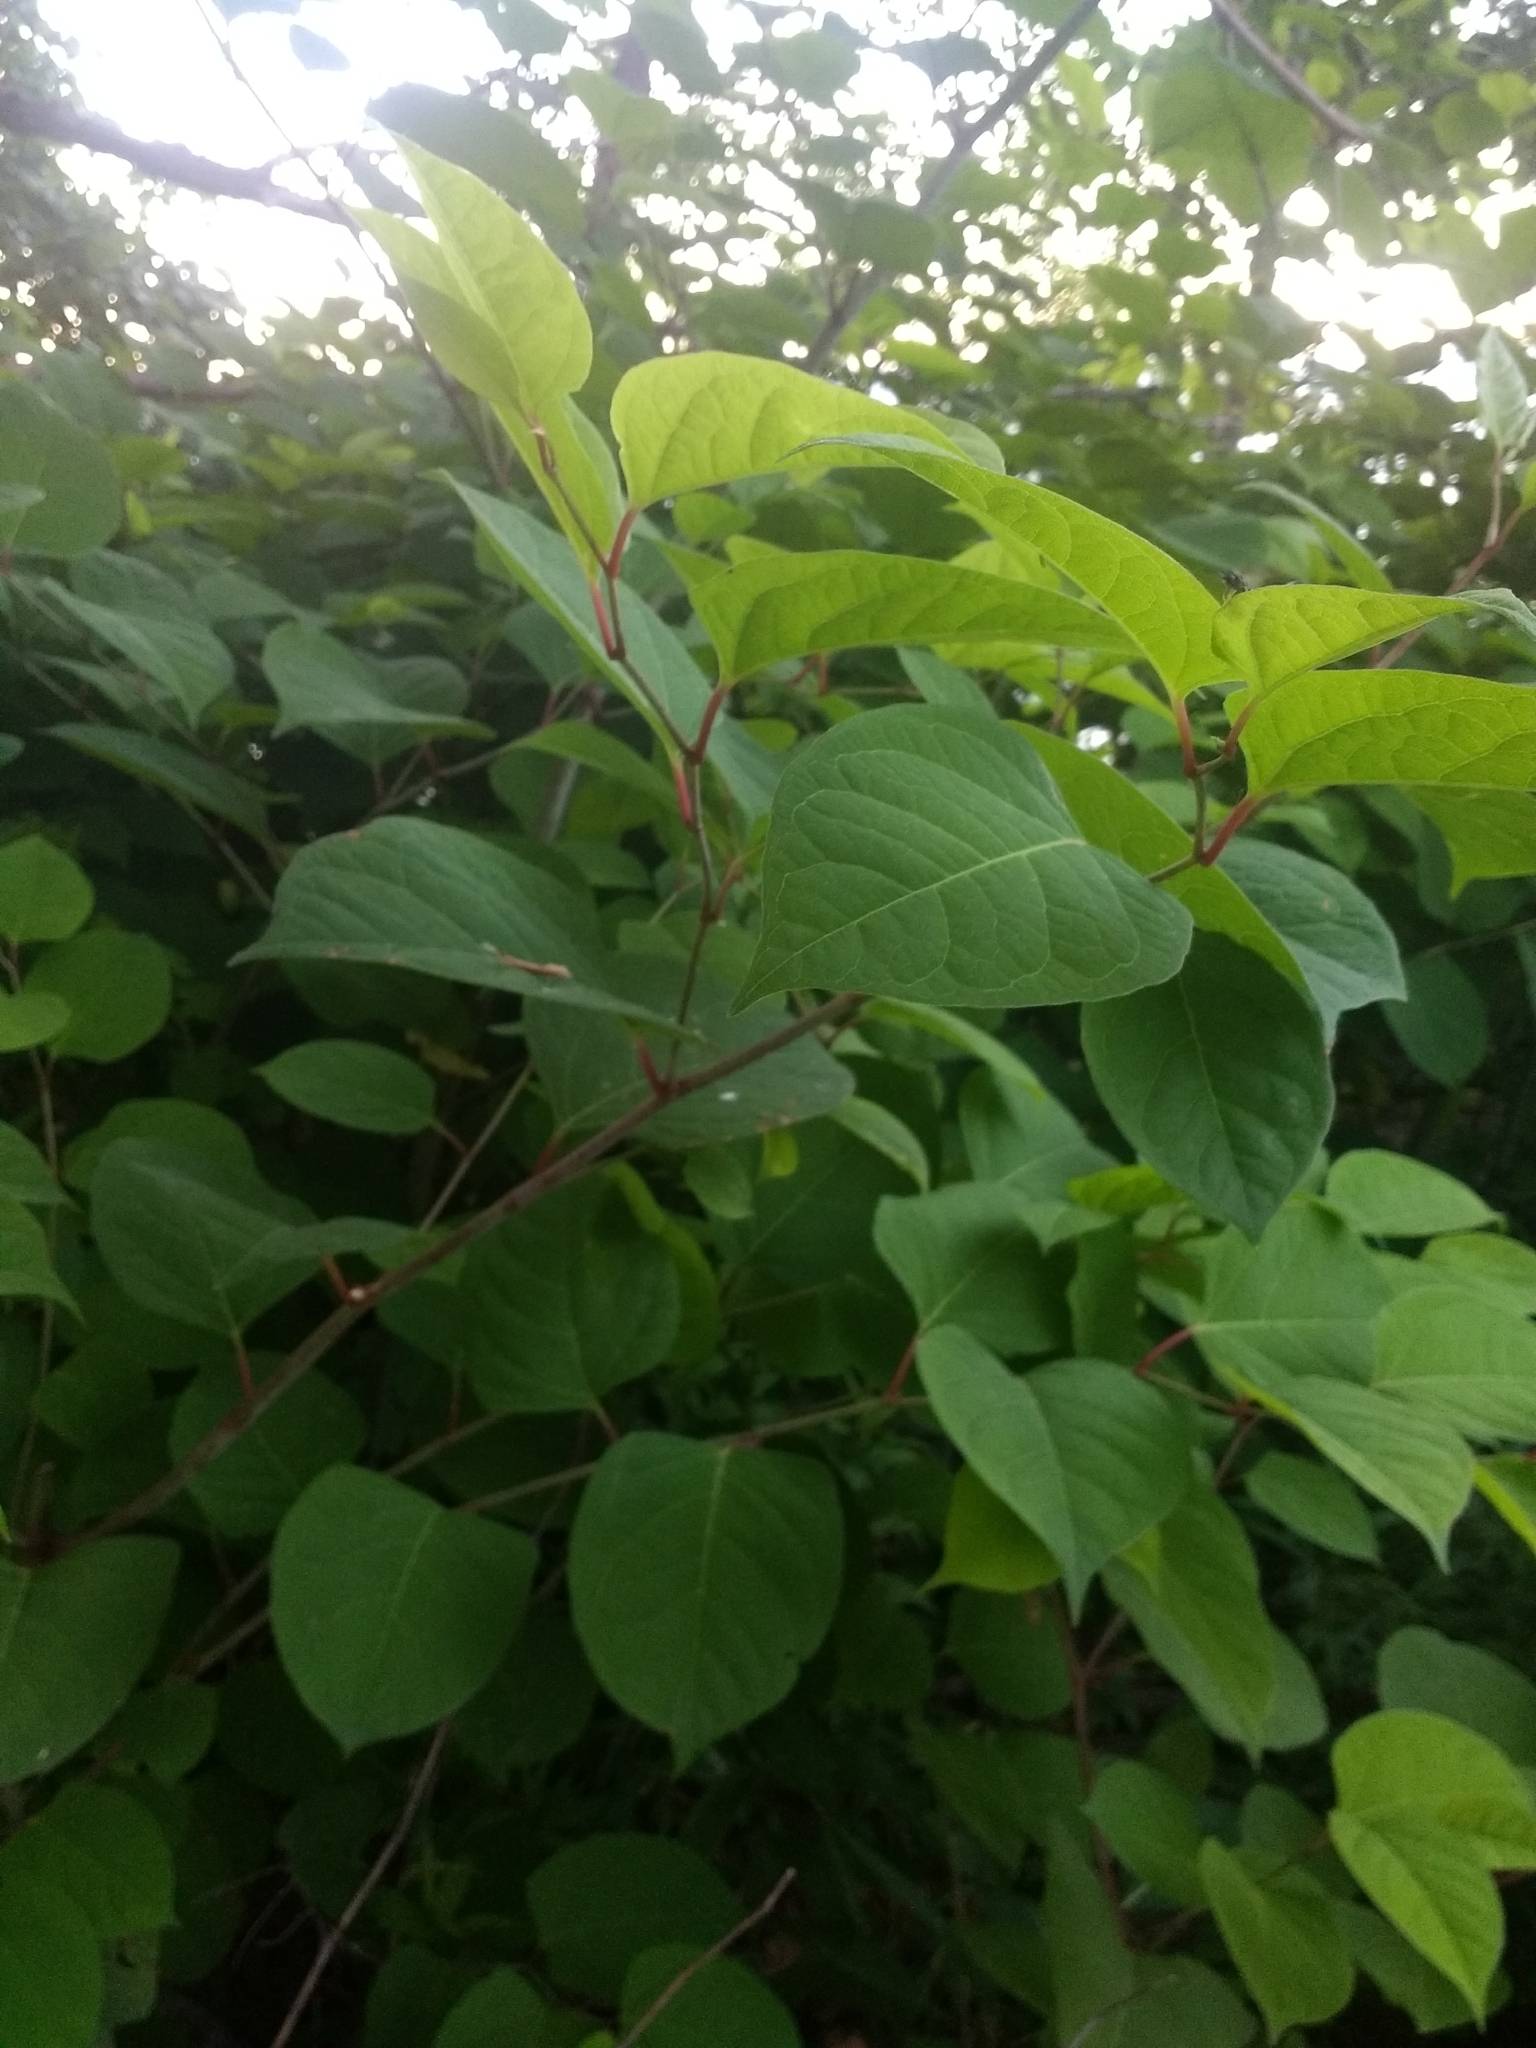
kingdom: Plantae
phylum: Tracheophyta
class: Magnoliopsida
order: Caryophyllales
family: Polygonaceae
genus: Reynoutria
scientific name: Reynoutria japonica
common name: Japanese knotweed
